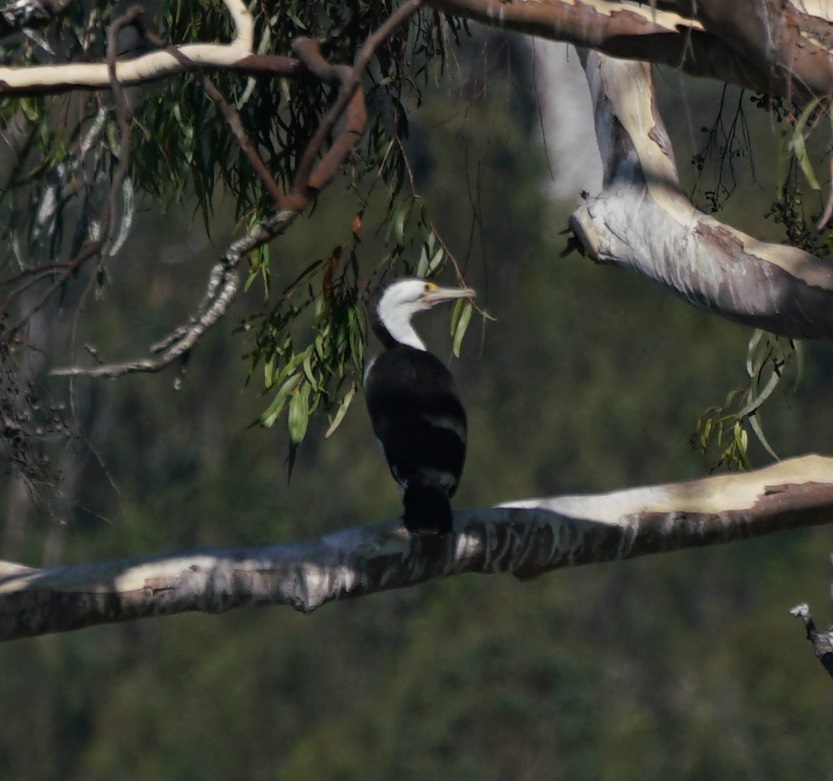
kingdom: Animalia
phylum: Chordata
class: Aves
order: Suliformes
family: Phalacrocoracidae
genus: Phalacrocorax
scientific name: Phalacrocorax varius
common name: Pied cormorant
